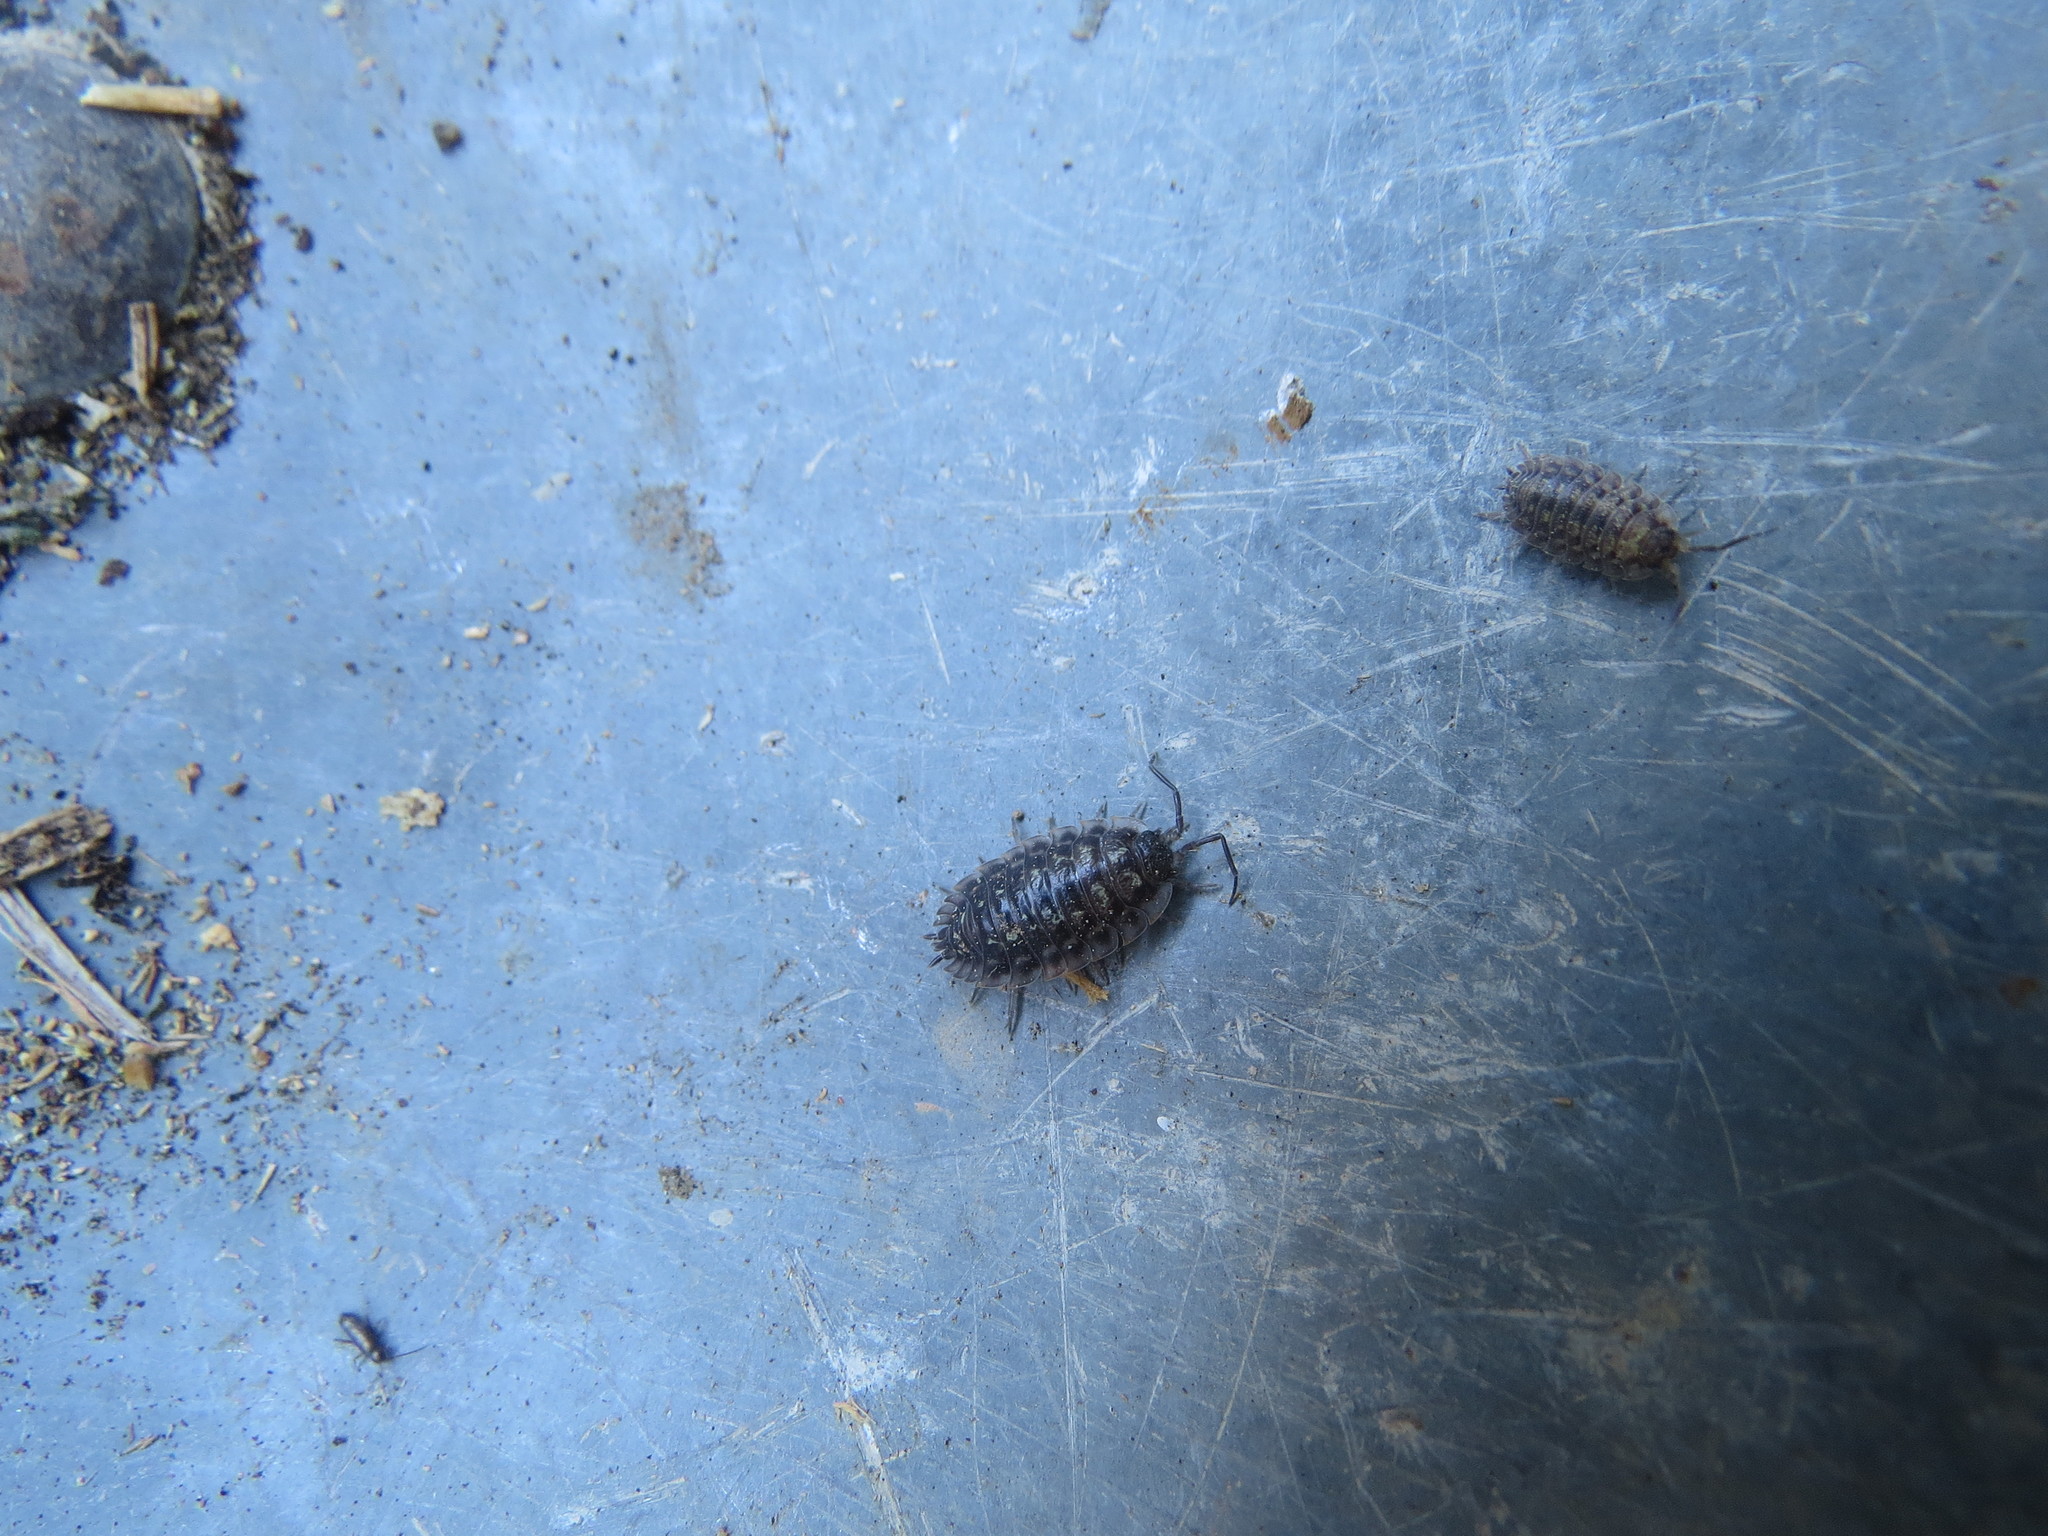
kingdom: Animalia
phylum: Arthropoda
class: Malacostraca
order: Isopoda
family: Oniscidae
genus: Oniscus
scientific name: Oniscus asellus
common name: Common shiny woodlouse
